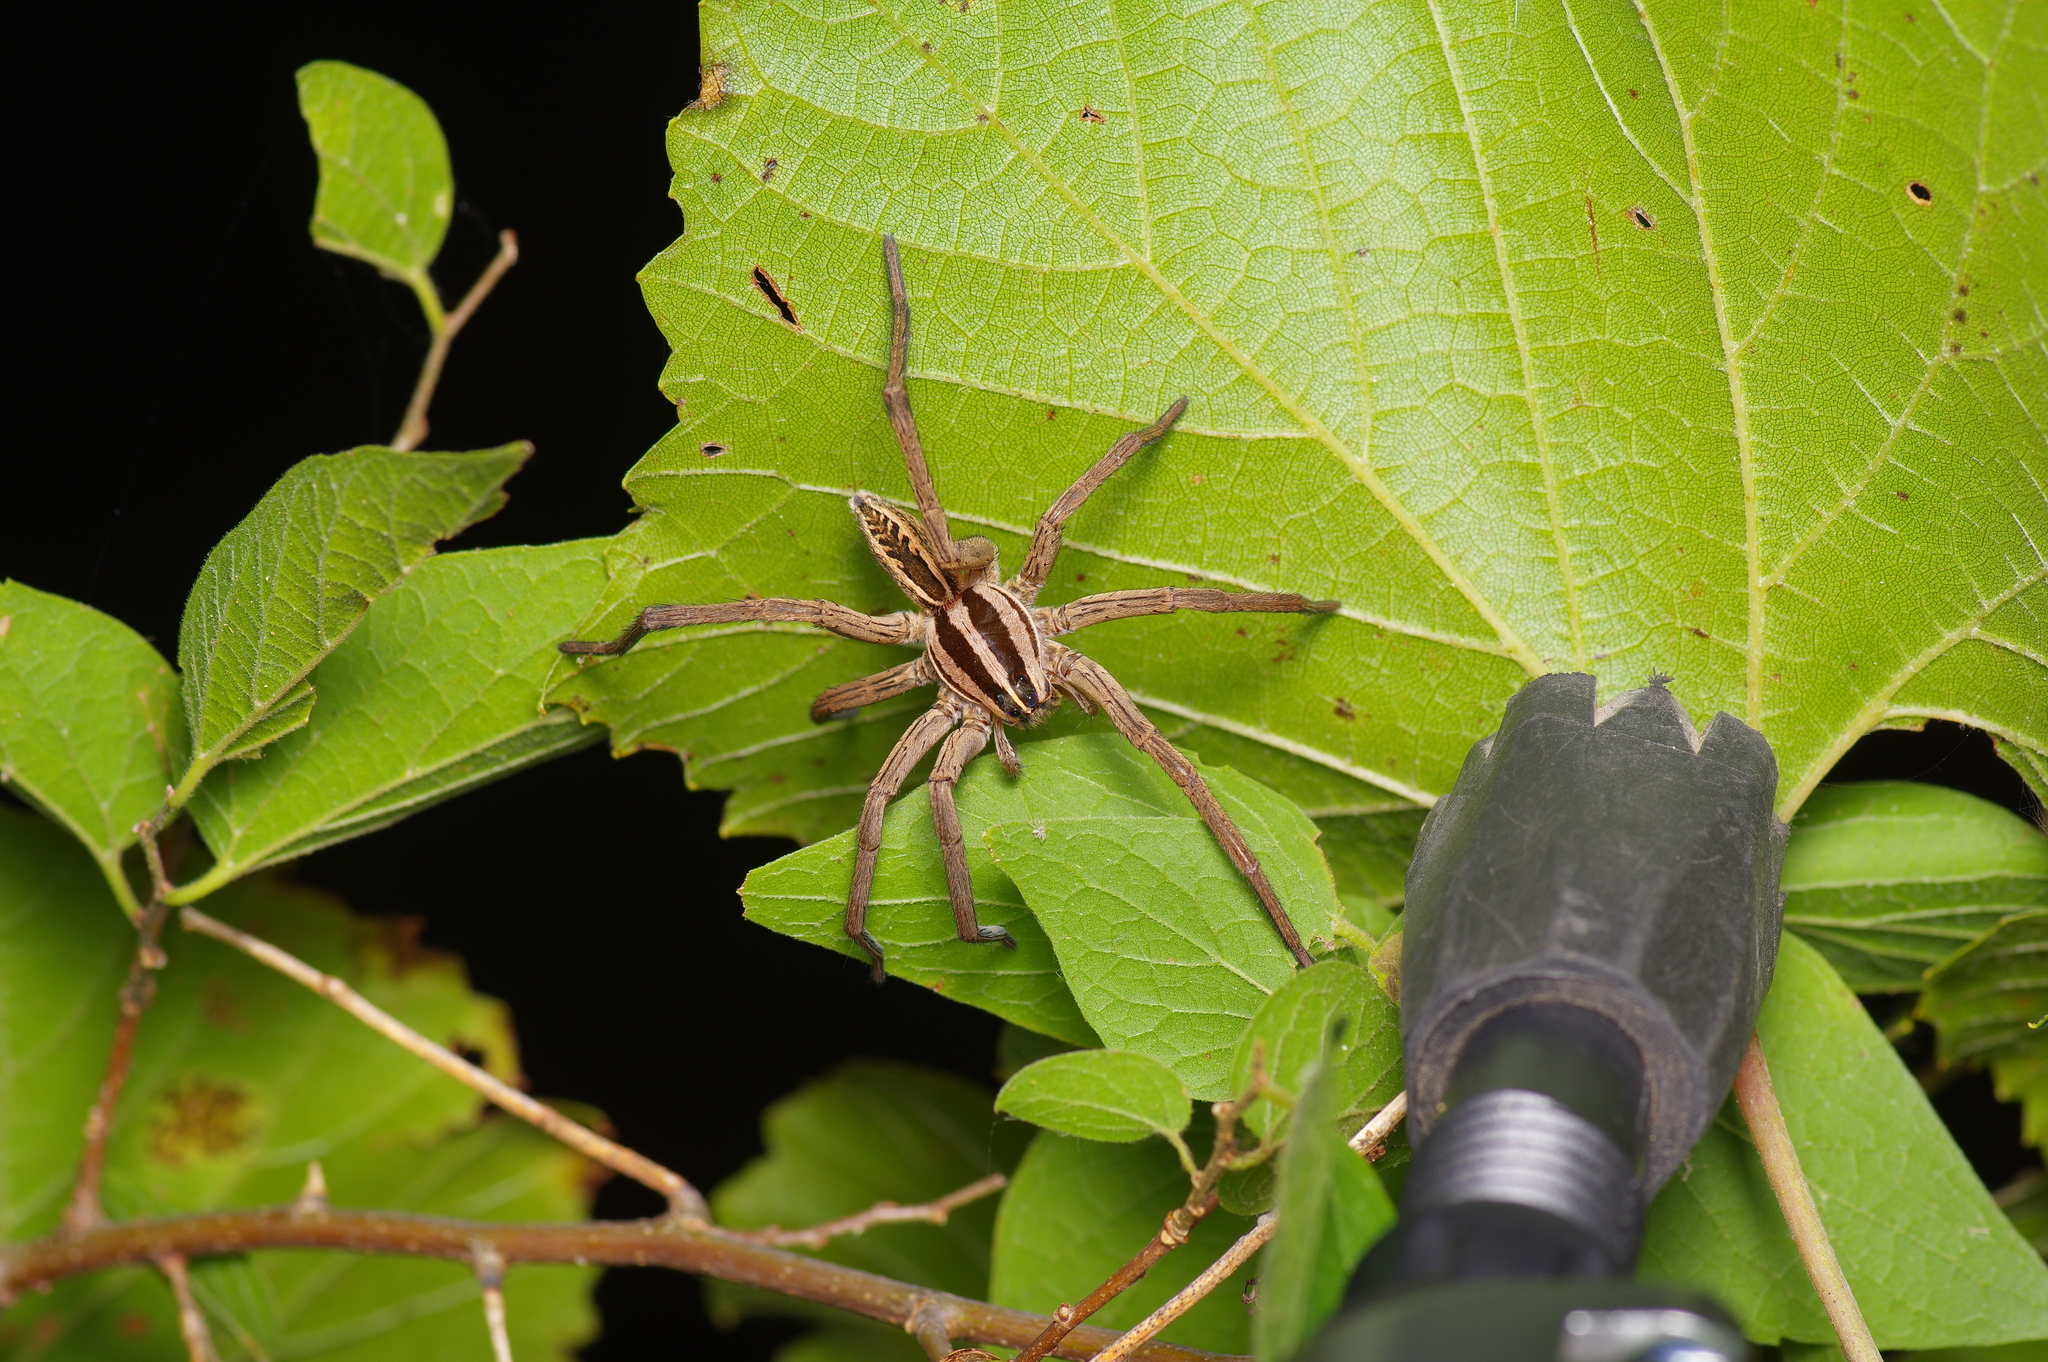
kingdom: Animalia
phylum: Arthropoda
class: Arachnida
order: Araneae
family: Lycosidae
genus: Rabidosa
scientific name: Rabidosa rabida
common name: Rabid wolf spider
